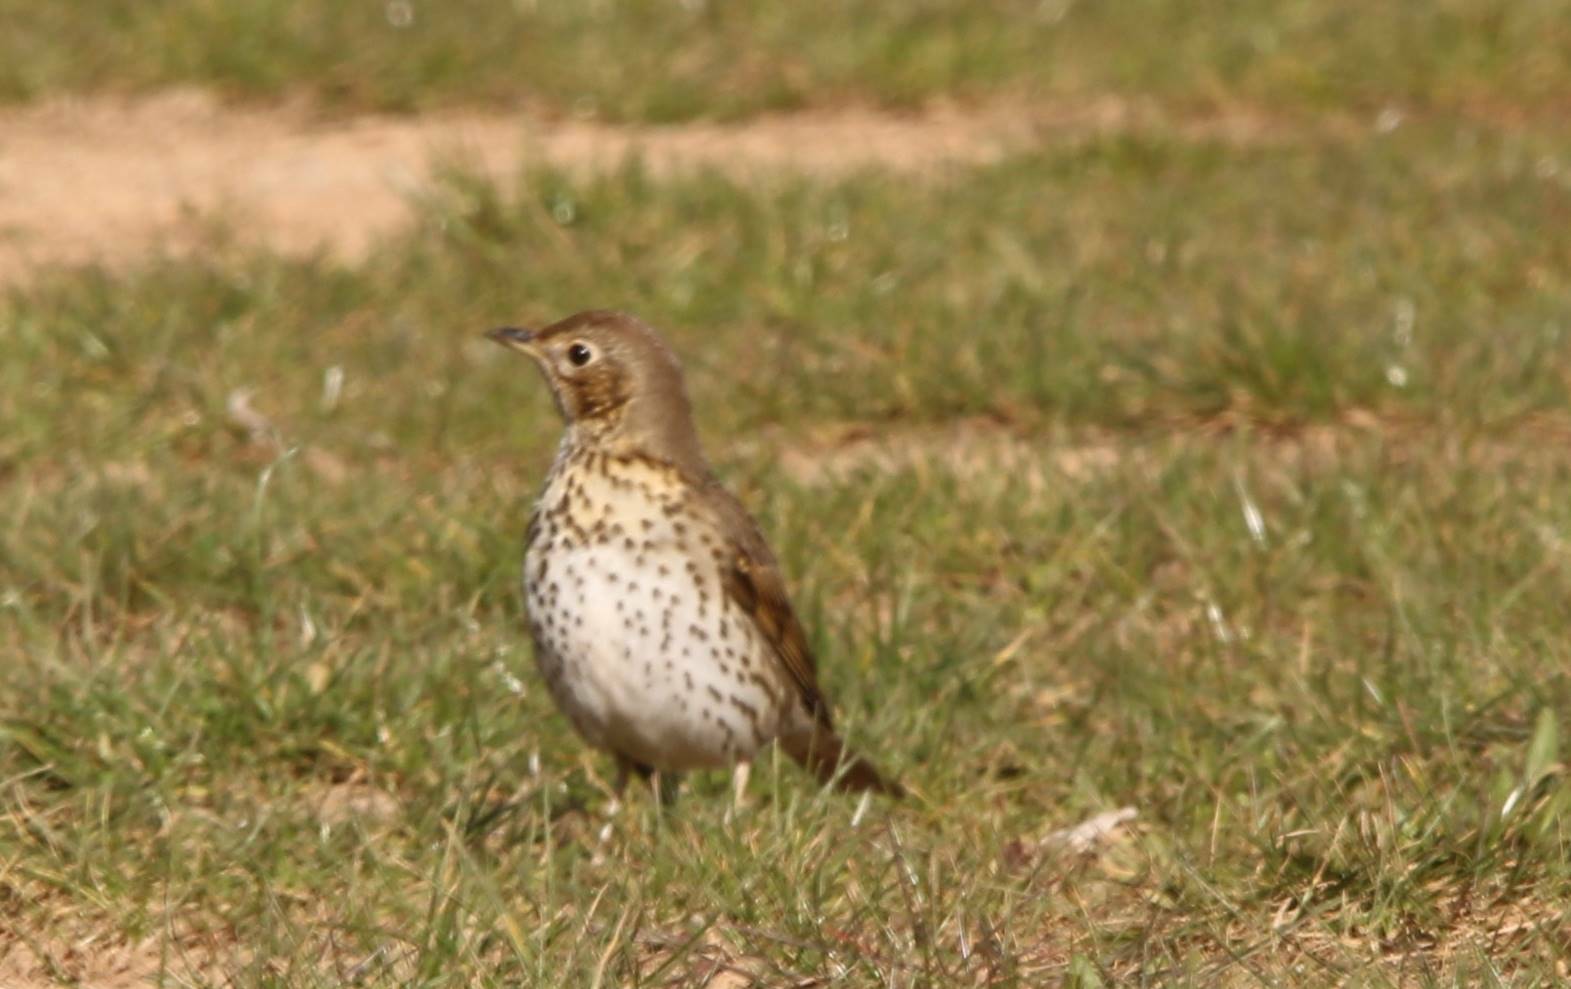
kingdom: Animalia
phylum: Chordata
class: Aves
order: Passeriformes
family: Turdidae
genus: Turdus
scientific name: Turdus philomelos
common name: Song thrush
